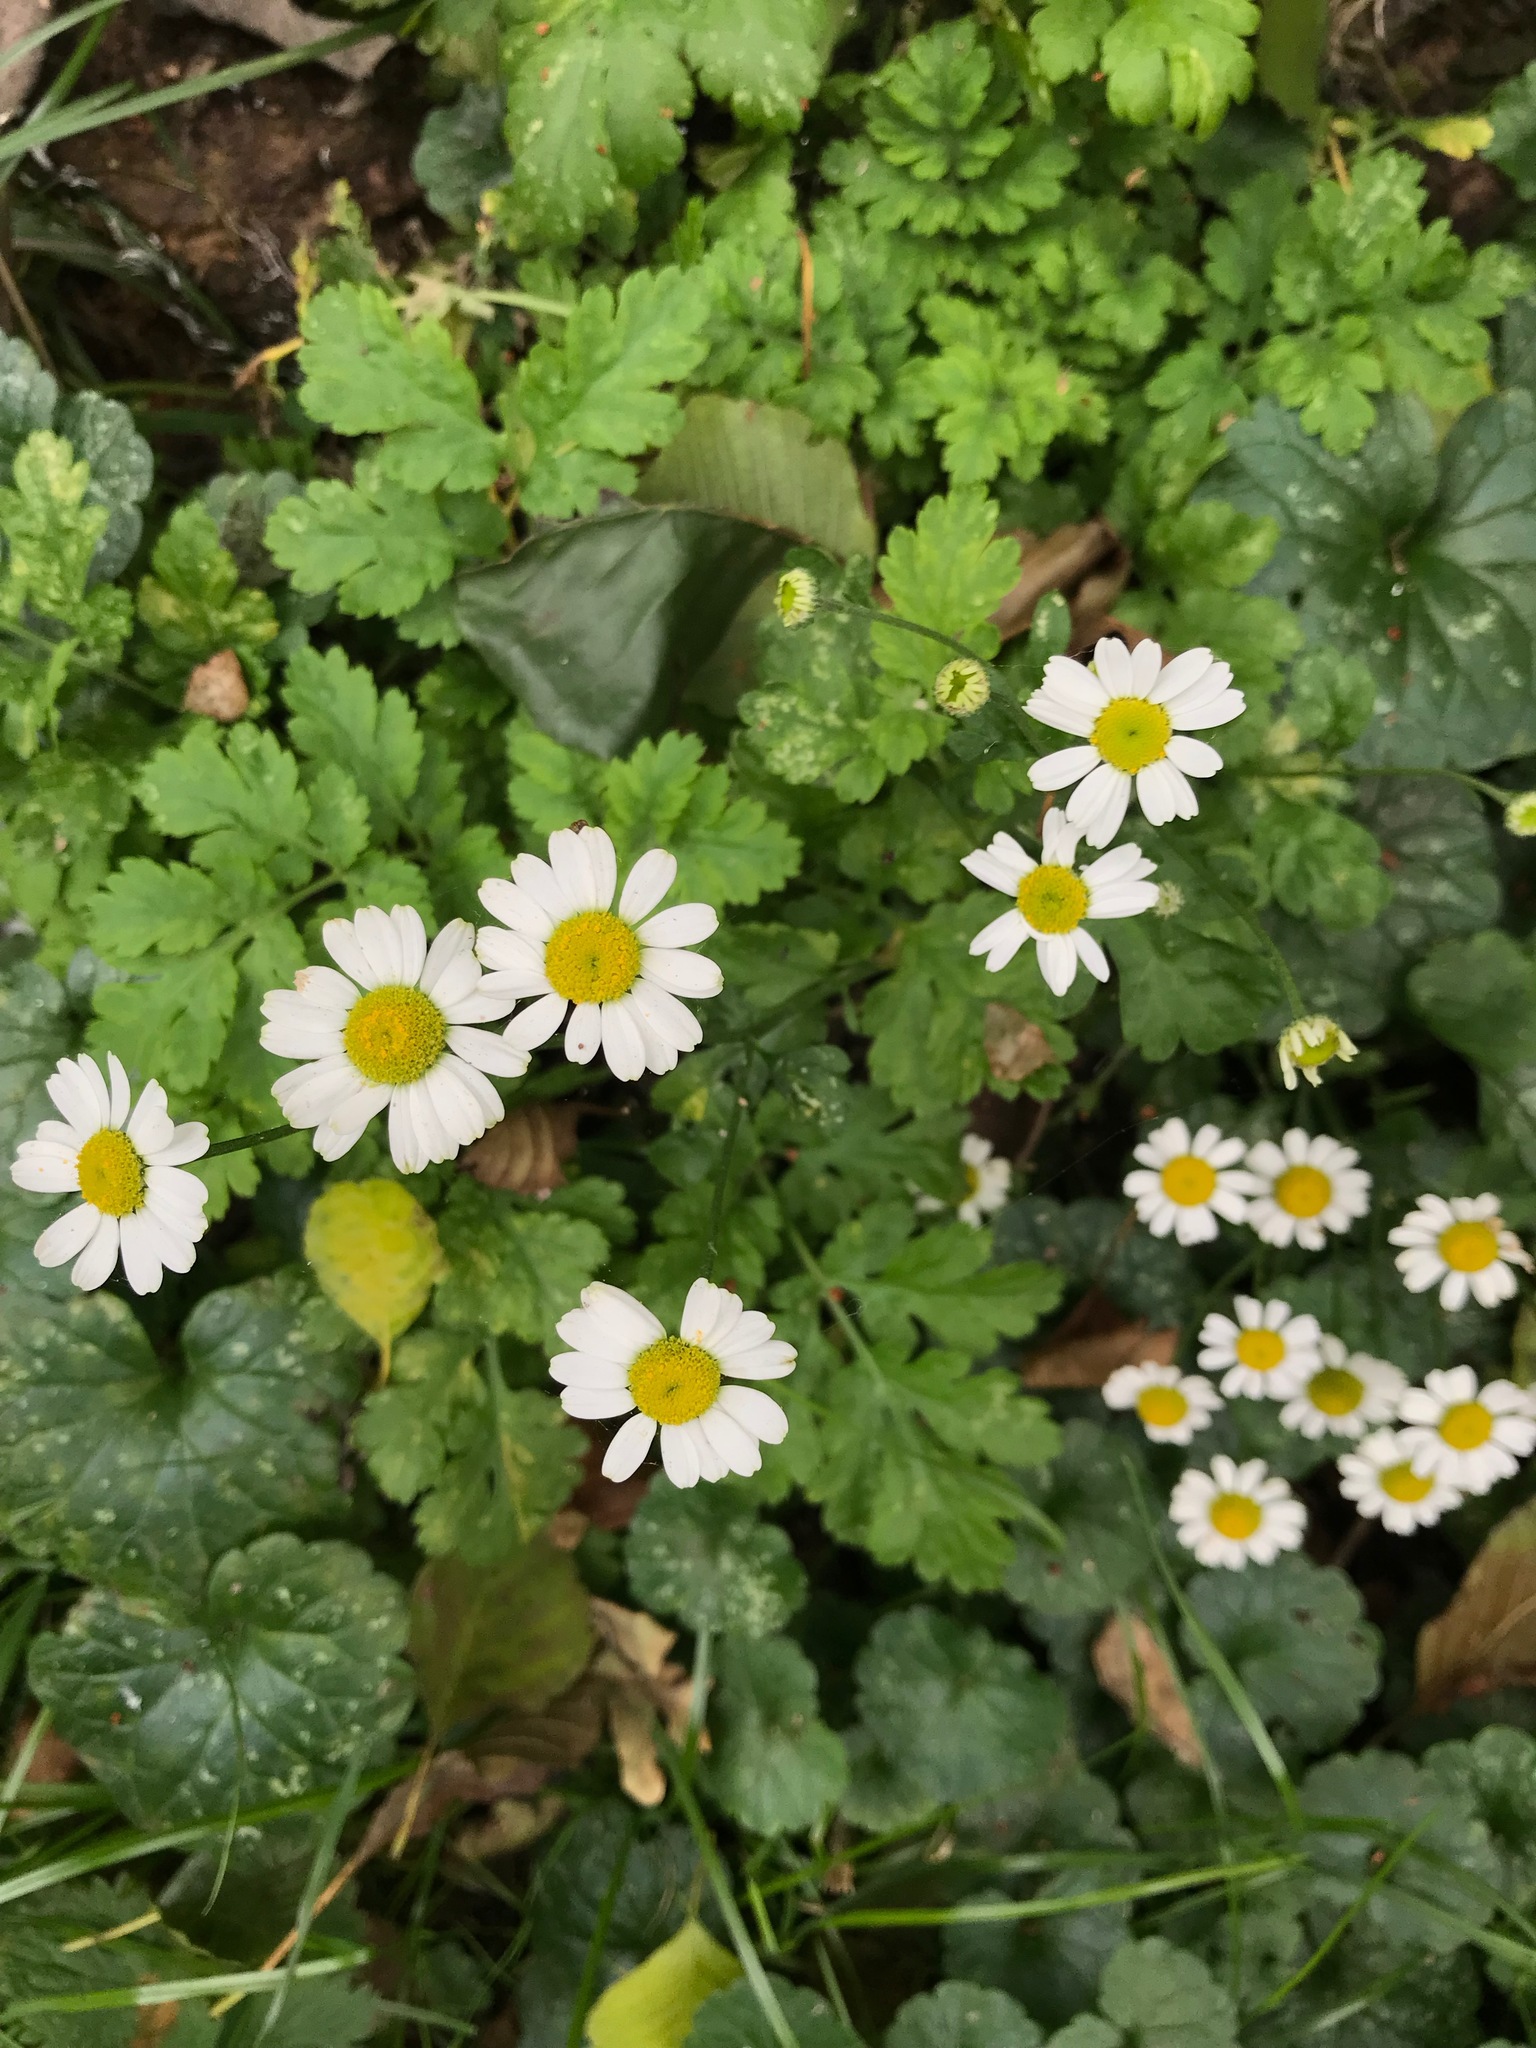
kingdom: Plantae
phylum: Tracheophyta
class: Magnoliopsida
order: Asterales
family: Asteraceae
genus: Tanacetum
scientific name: Tanacetum parthenium
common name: Feverfew
